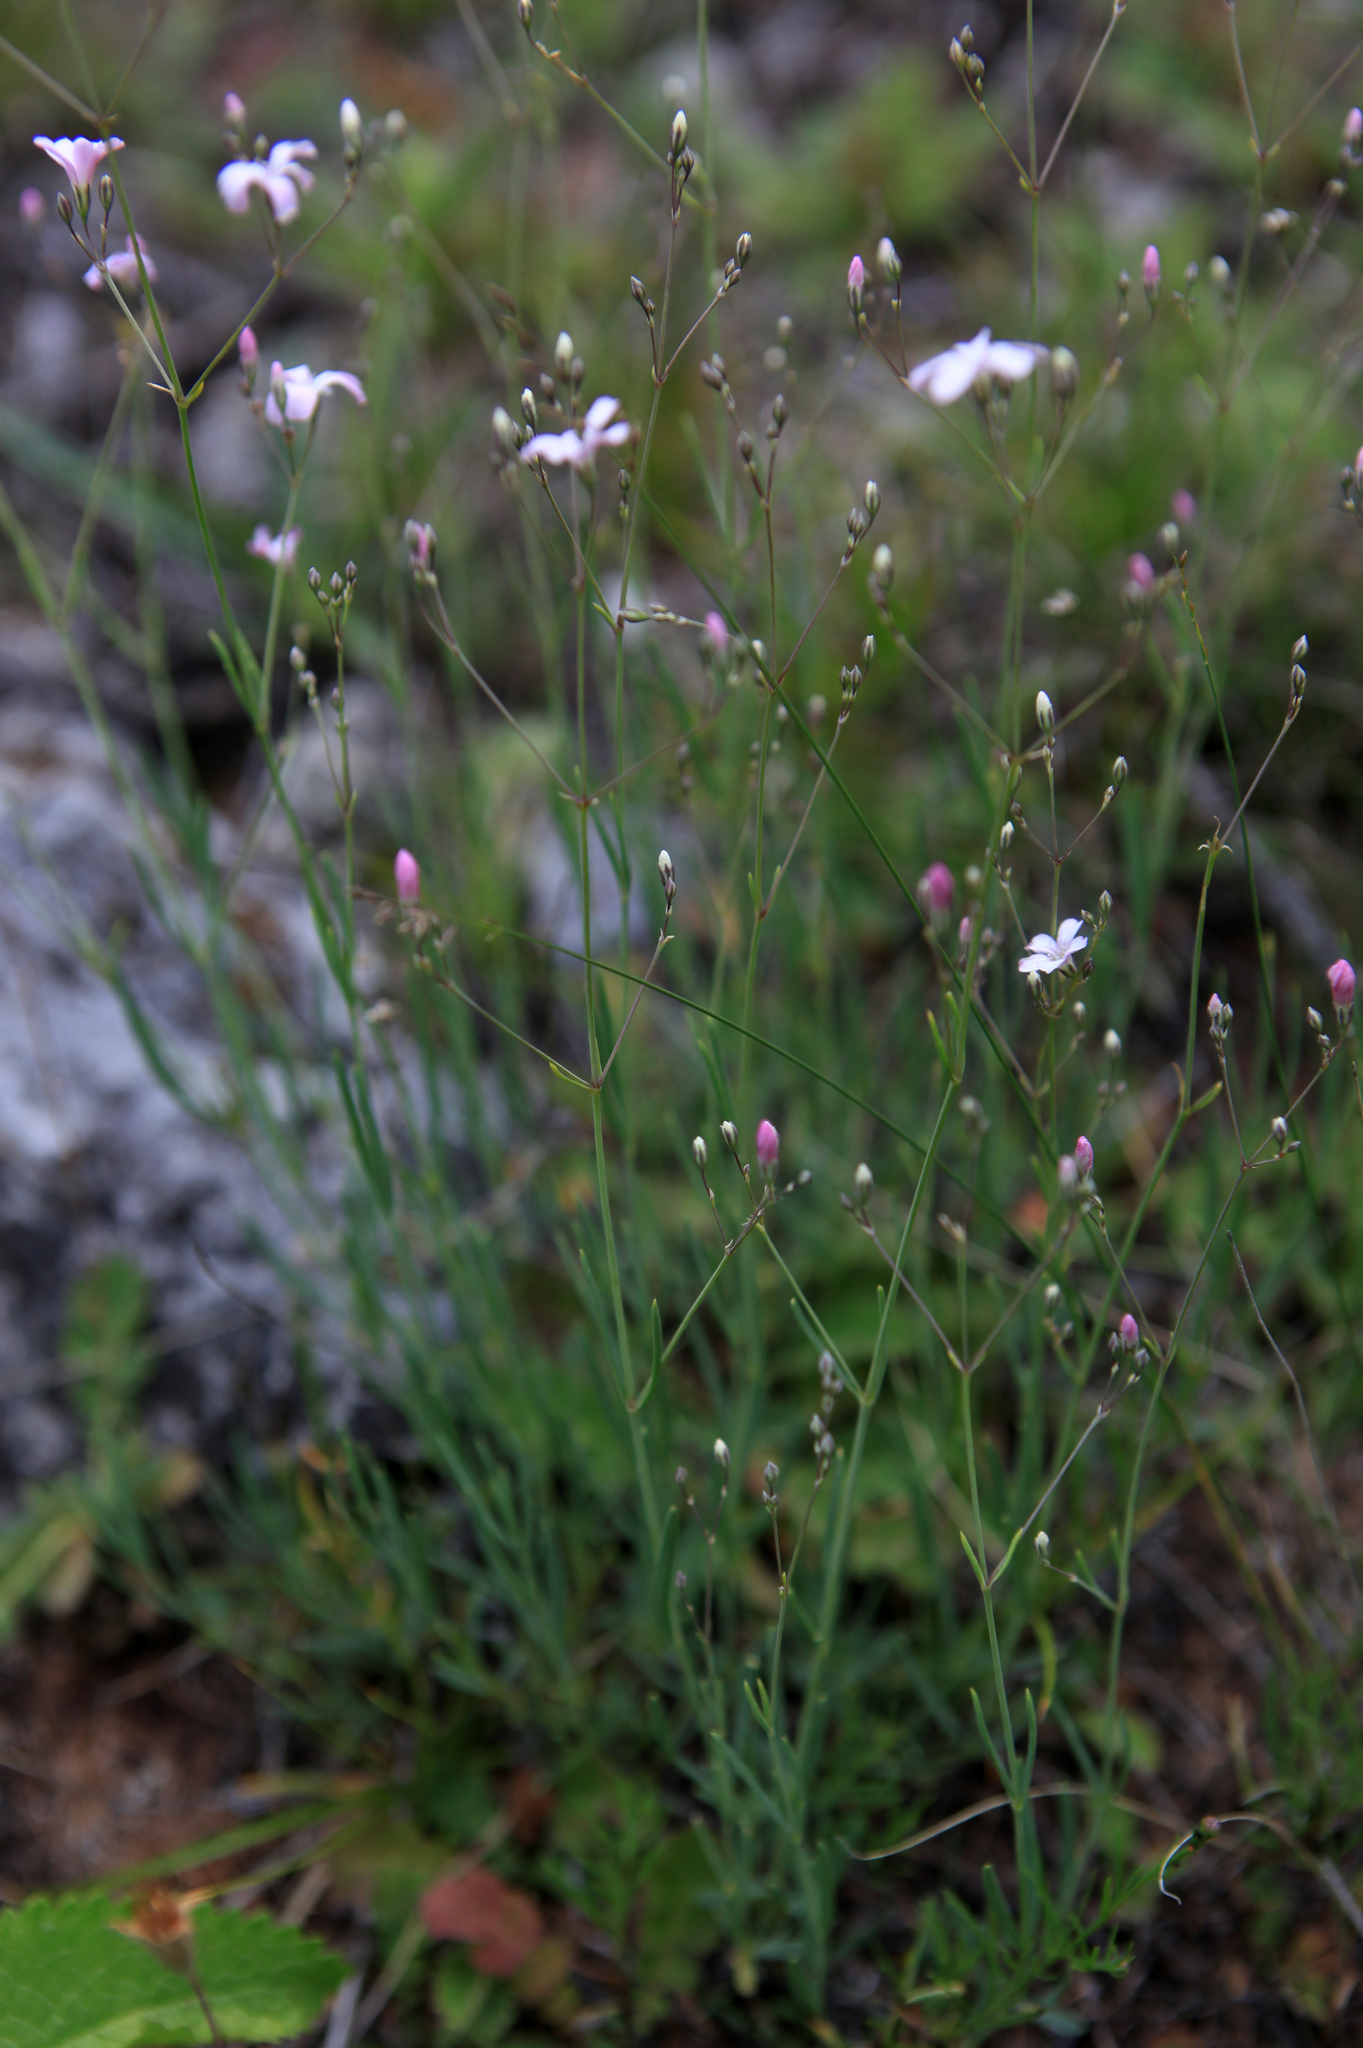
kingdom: Plantae
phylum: Tracheophyta
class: Magnoliopsida
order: Caryophyllales
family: Caryophyllaceae
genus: Gypsophila
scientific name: Gypsophila patrinii
